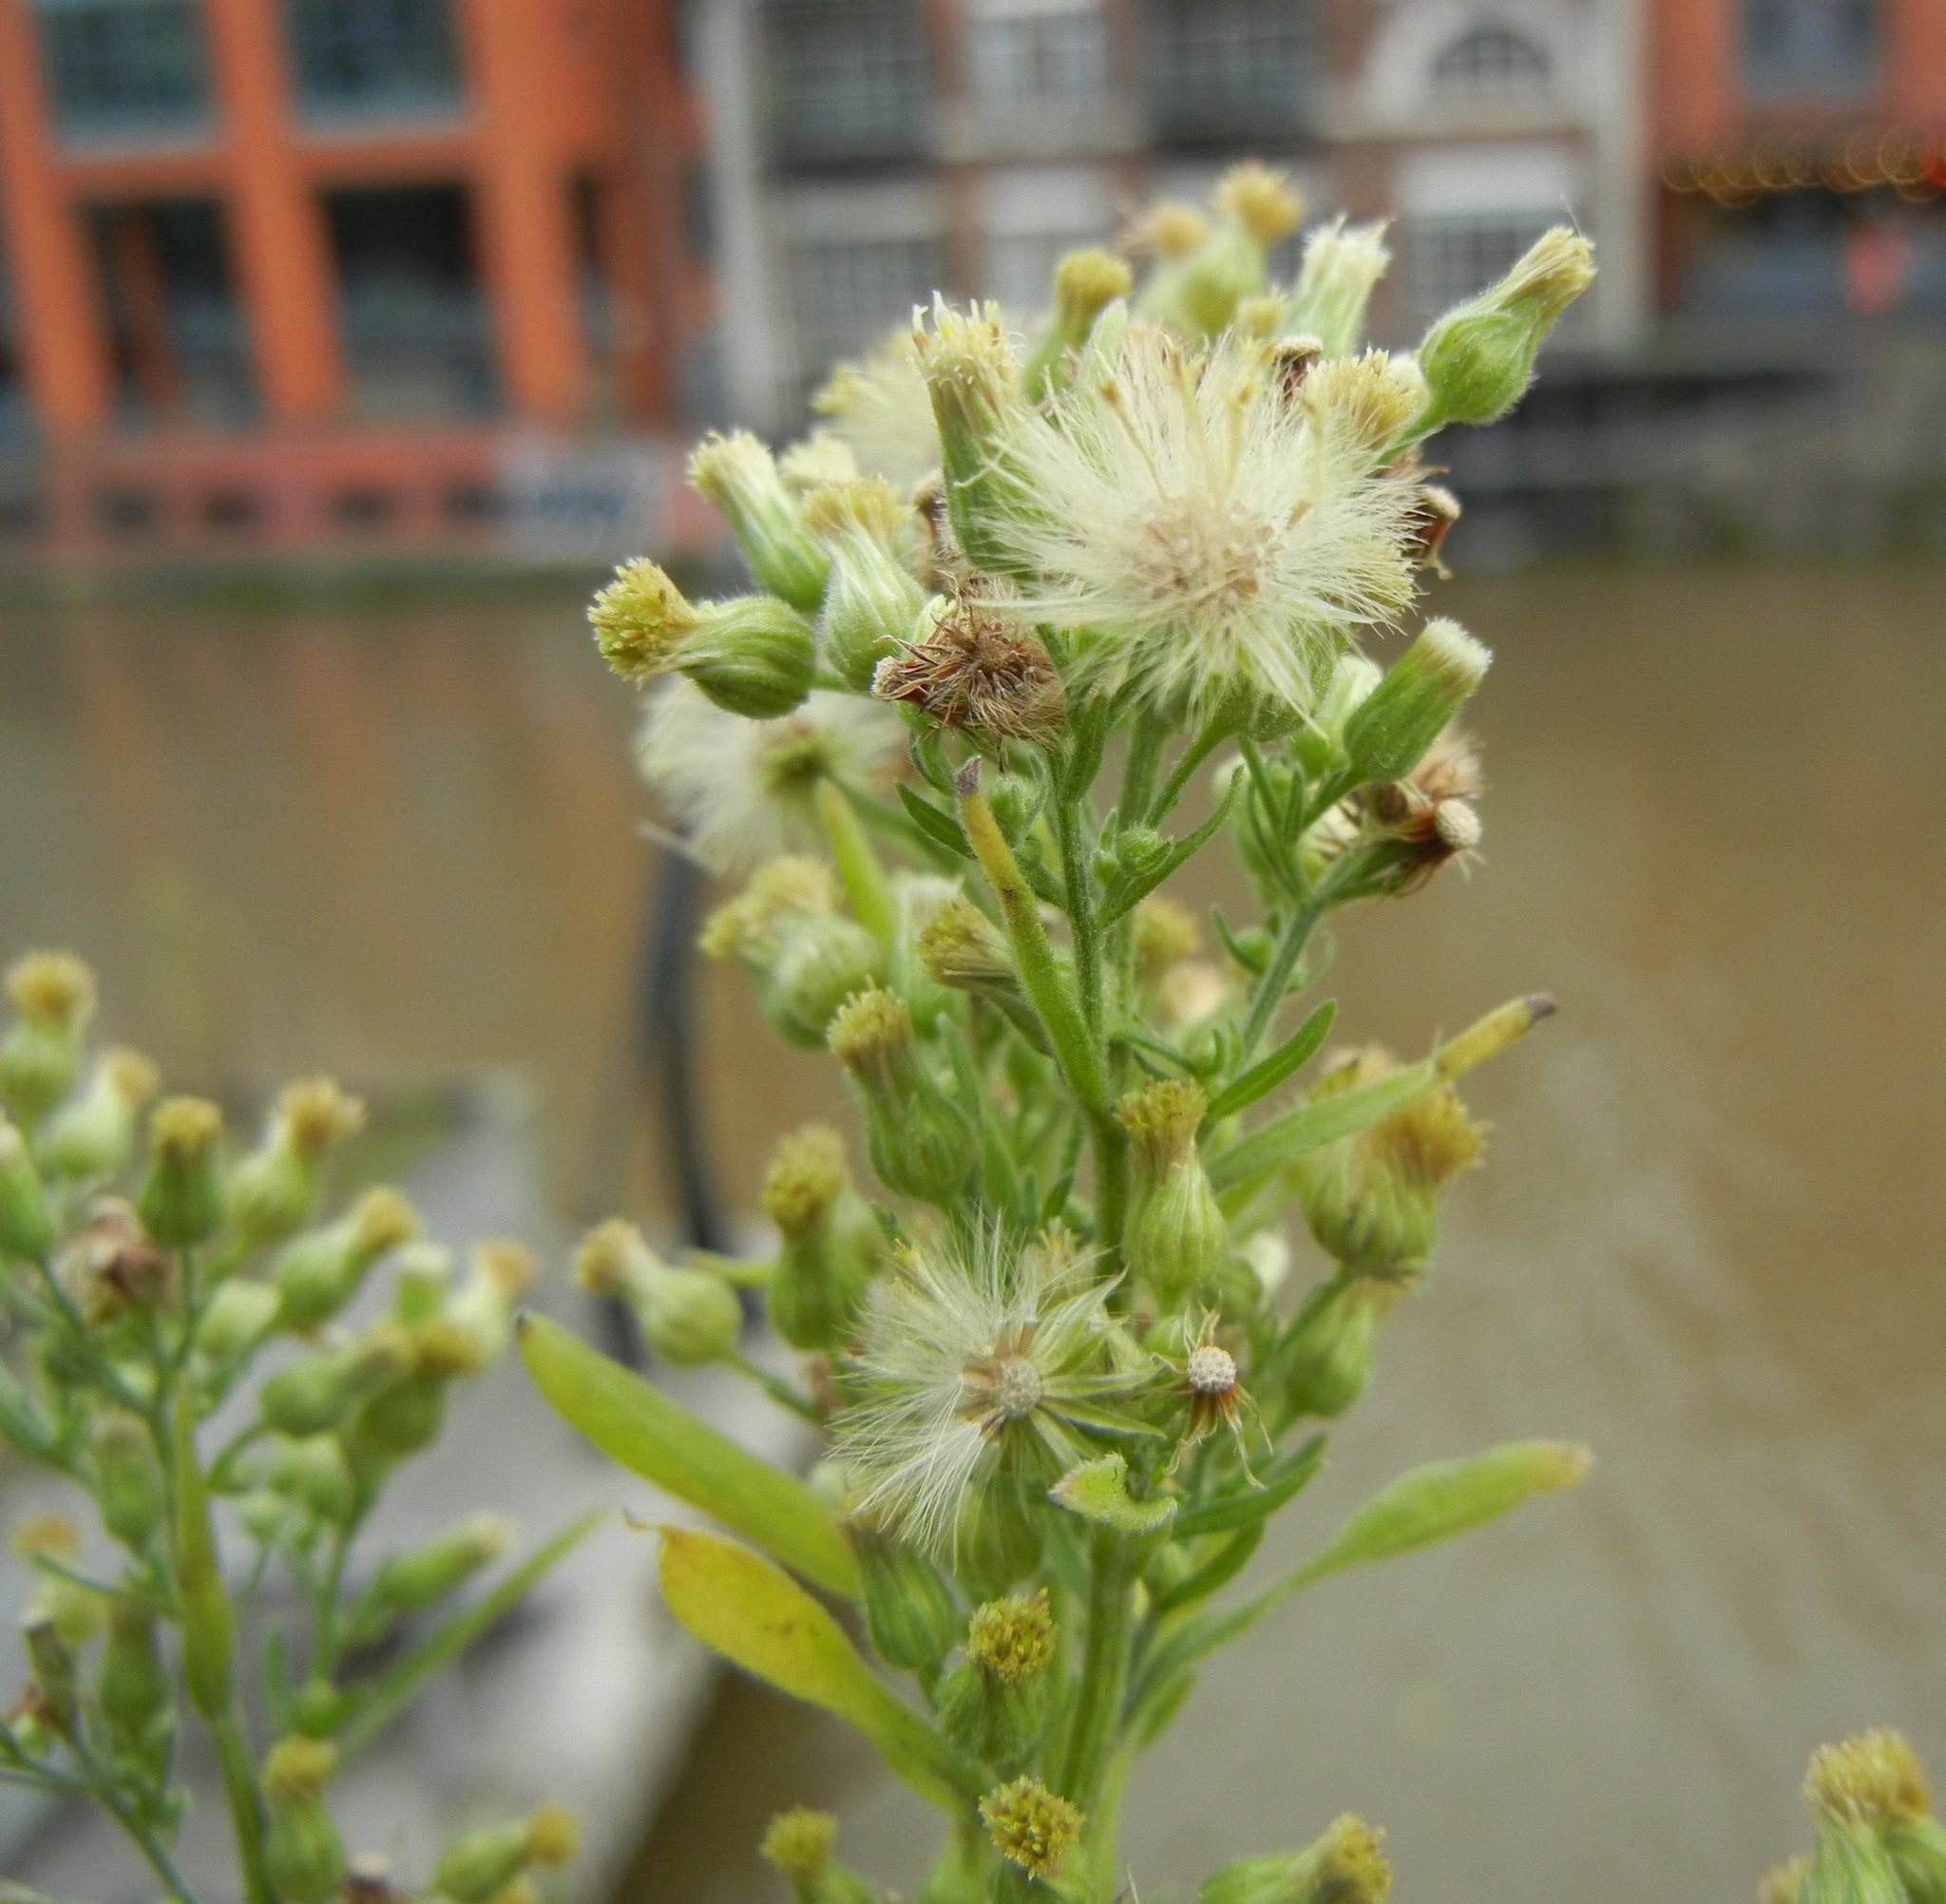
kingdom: Plantae
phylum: Tracheophyta
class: Magnoliopsida
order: Asterales
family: Asteraceae
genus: Erigeron
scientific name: Erigeron sumatrensis
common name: Daisy
